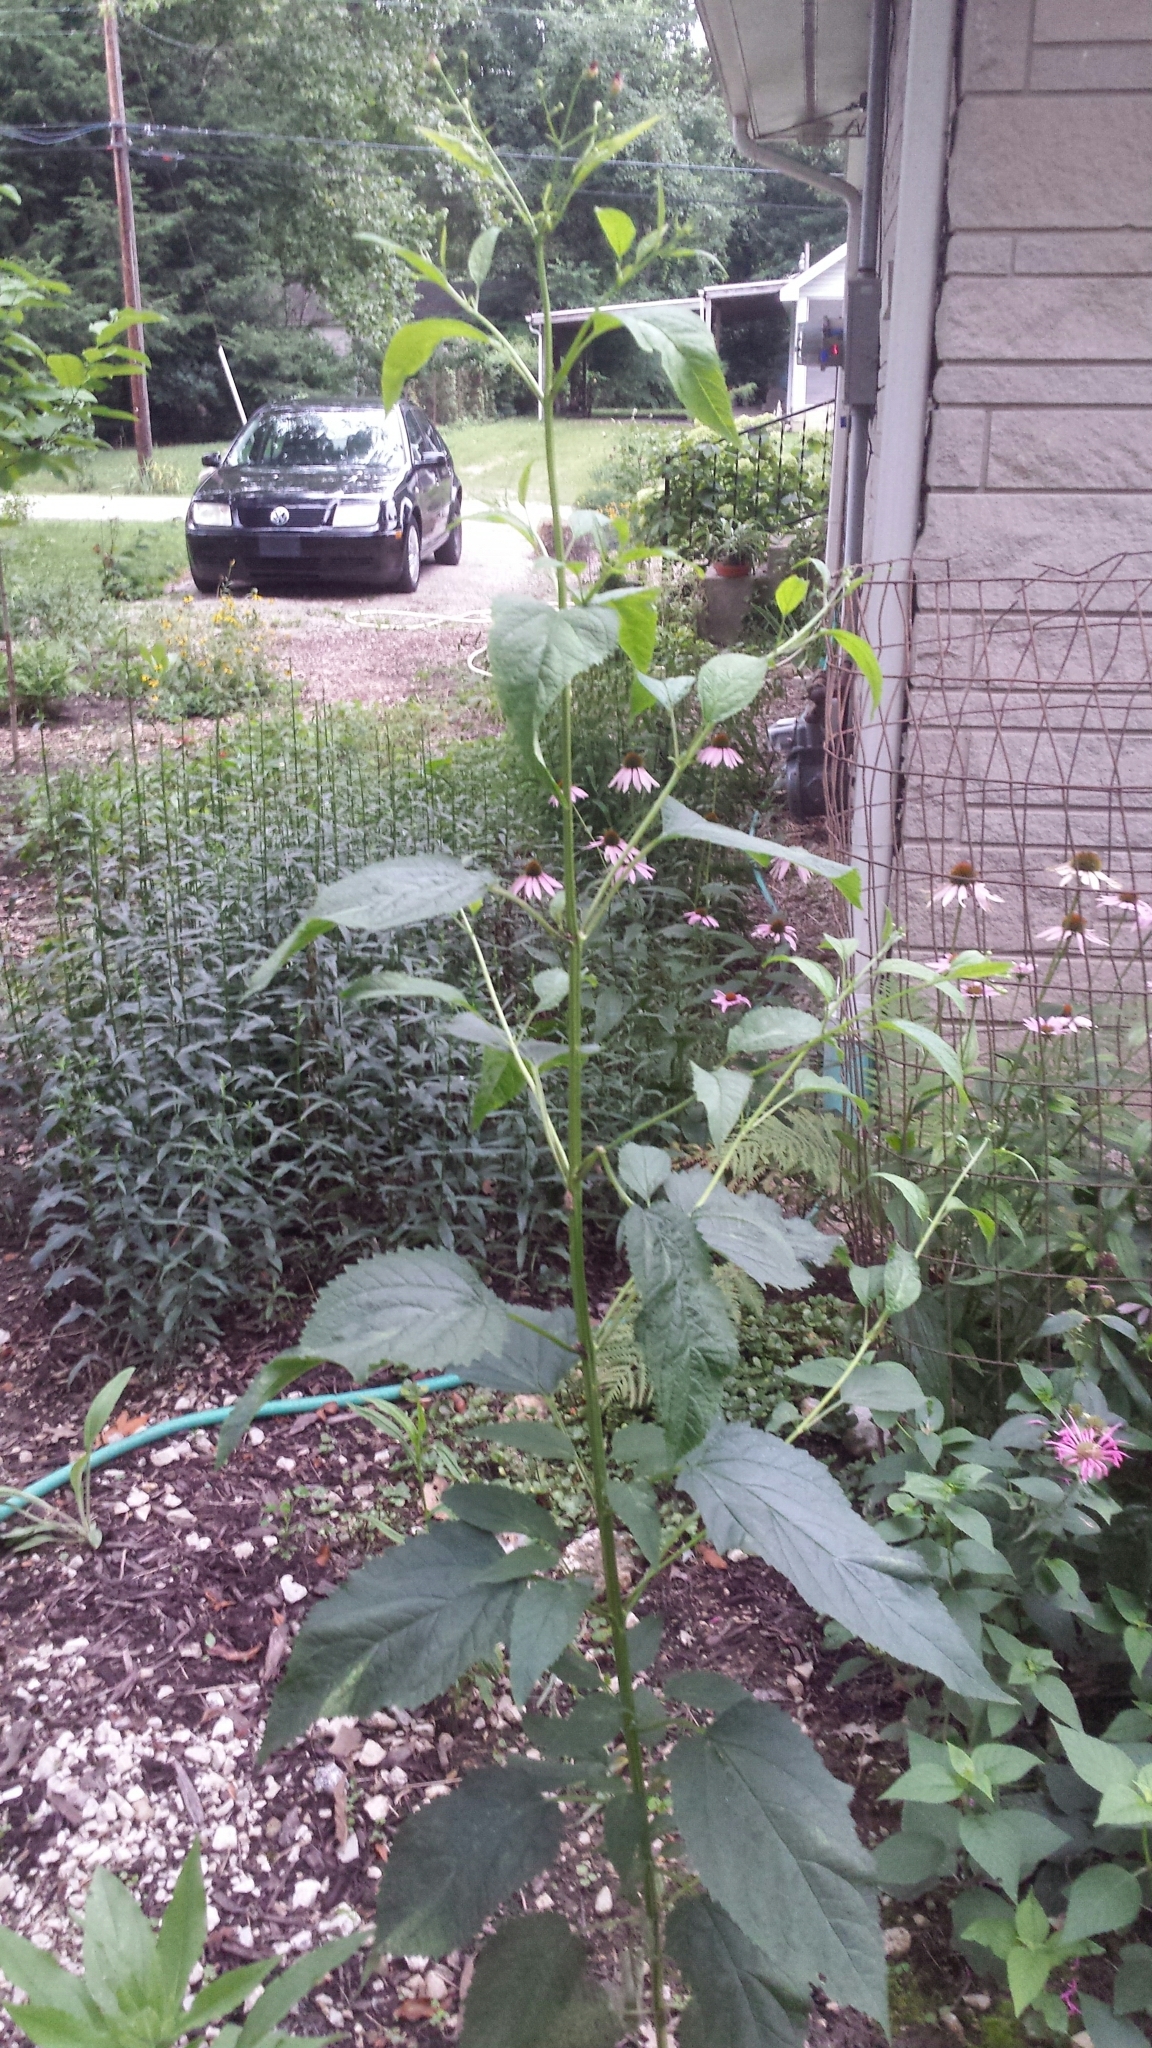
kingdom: Plantae
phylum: Tracheophyta
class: Magnoliopsida
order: Lamiales
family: Scrophulariaceae
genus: Scrophularia
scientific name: Scrophularia marilandica
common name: Eastern figwort
